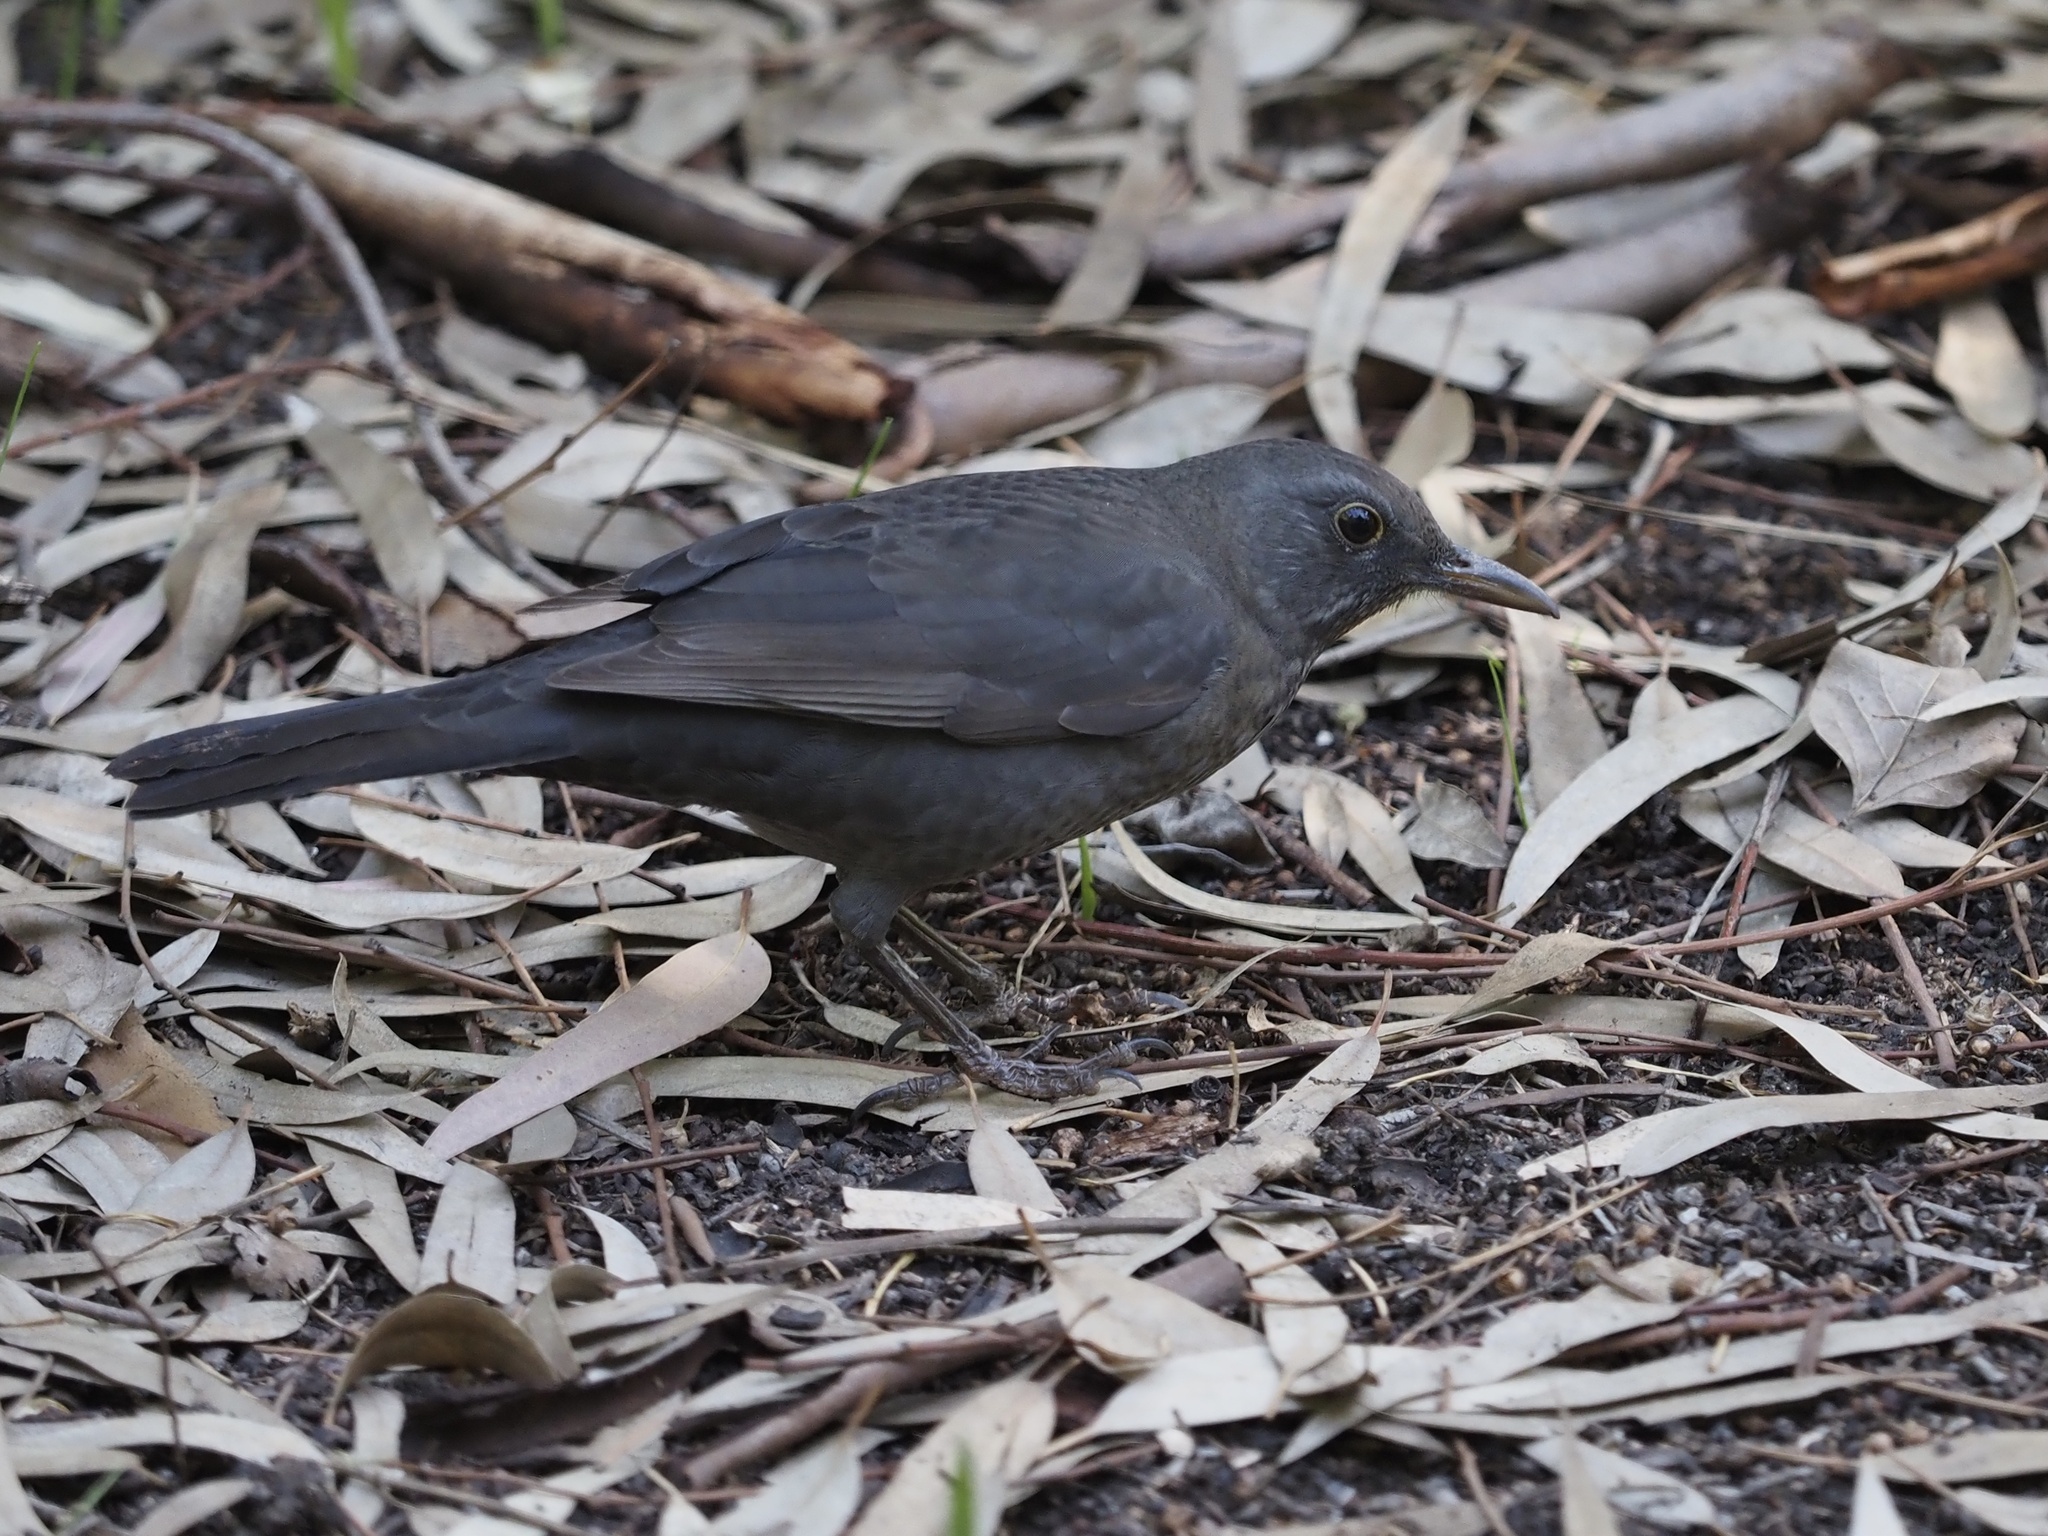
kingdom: Animalia
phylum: Chordata
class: Aves
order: Passeriformes
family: Turdidae
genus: Turdus
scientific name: Turdus merula
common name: Common blackbird
